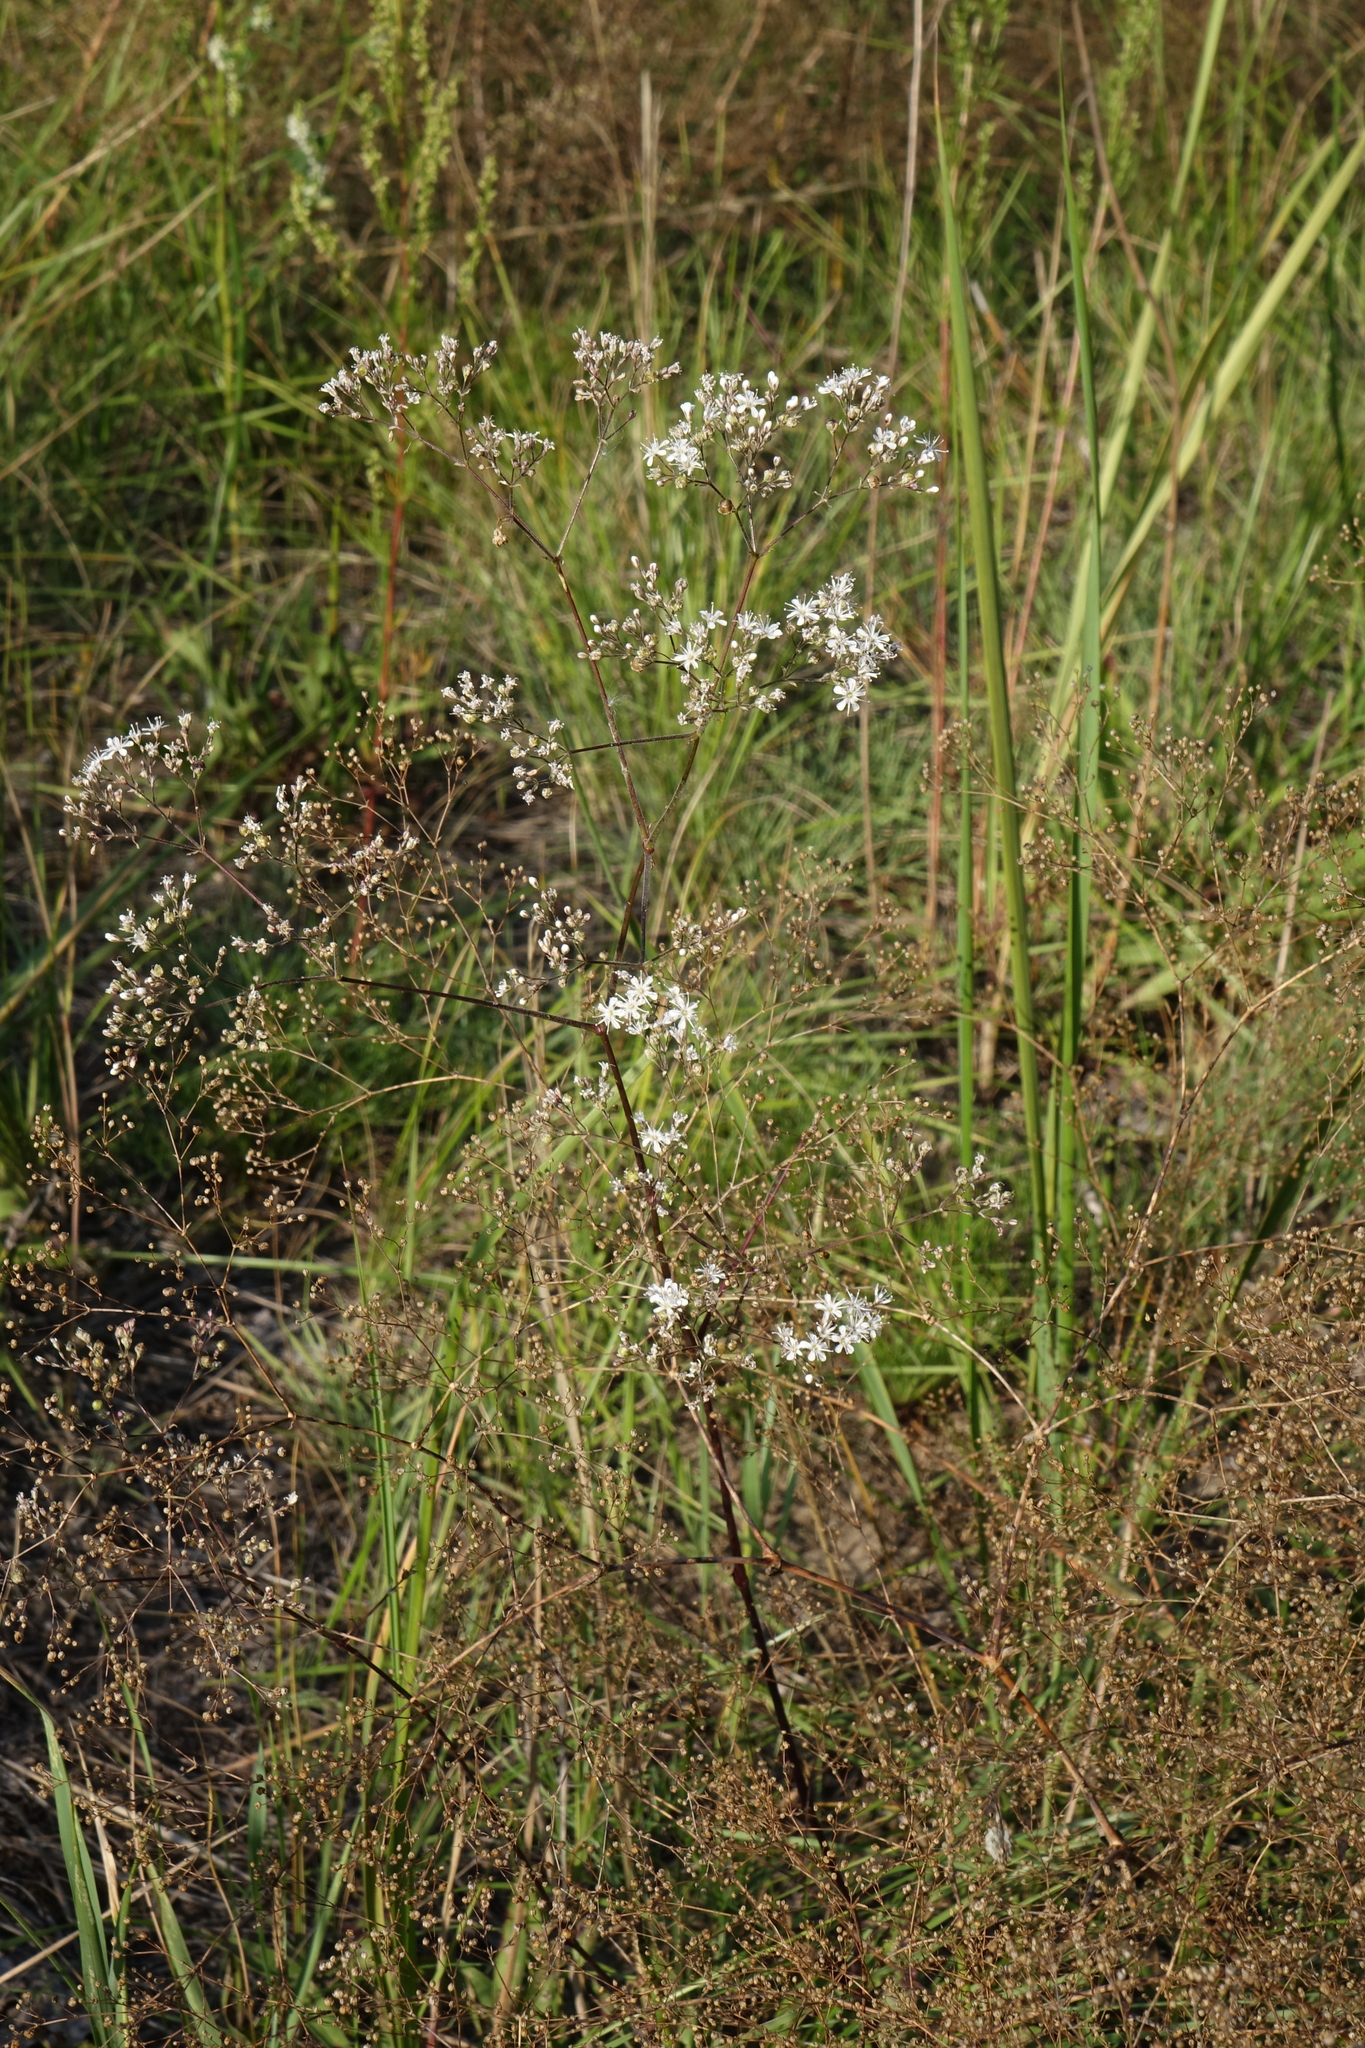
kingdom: Plantae
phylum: Tracheophyta
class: Magnoliopsida
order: Caryophyllales
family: Caryophyllaceae
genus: Gypsophila
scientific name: Gypsophila altissima
